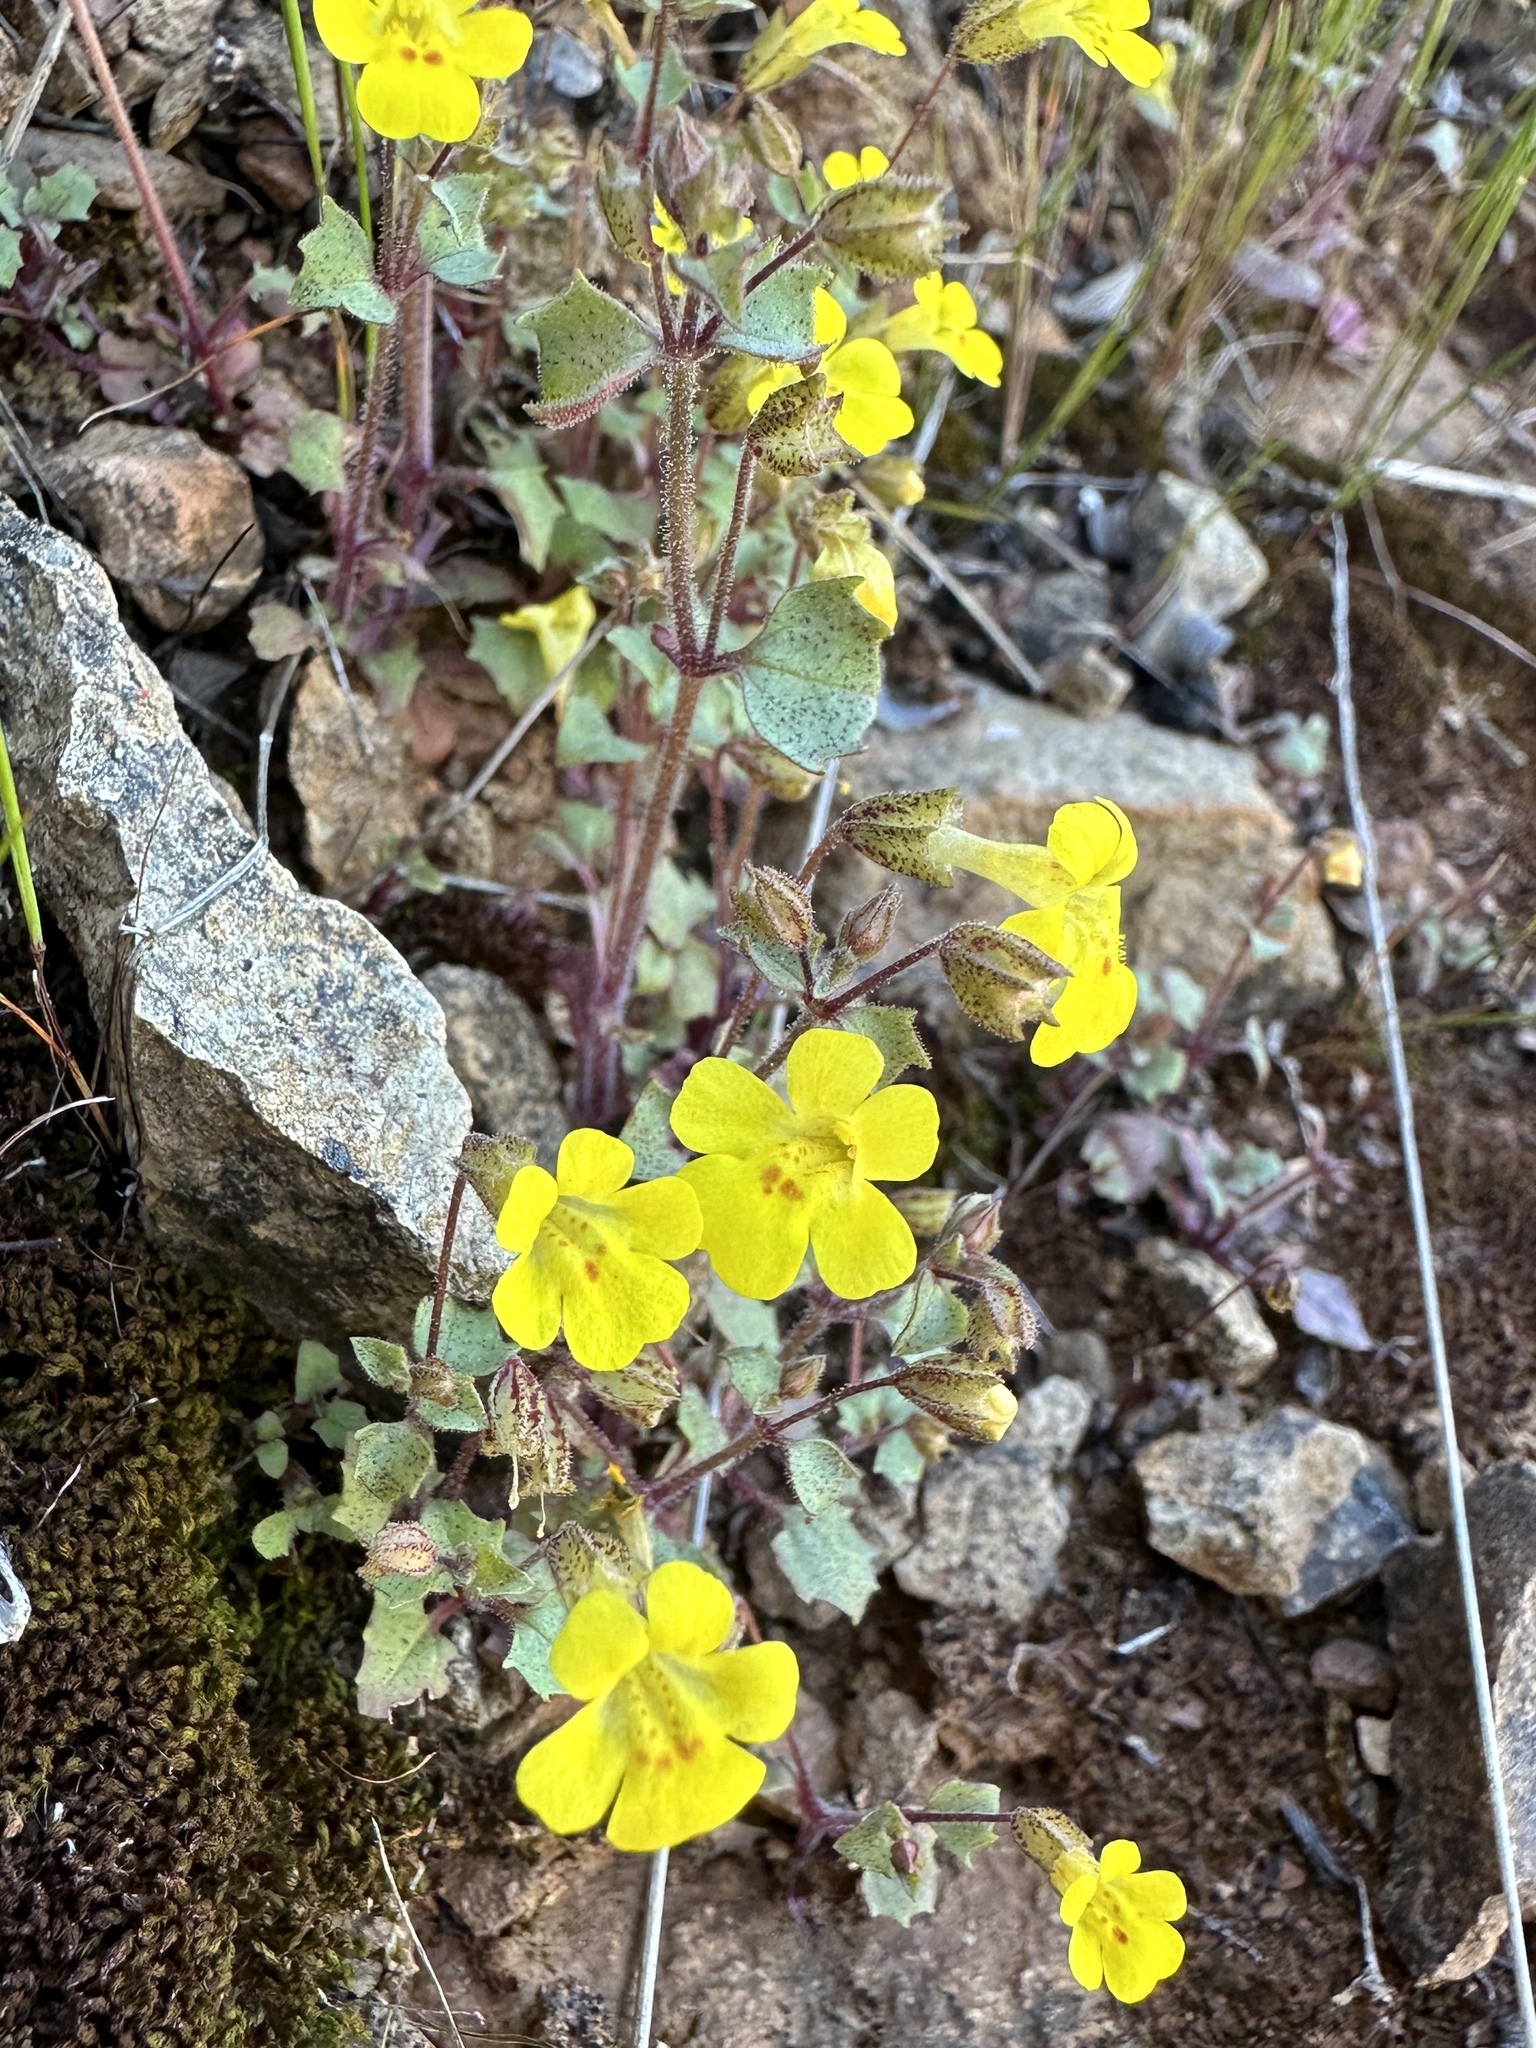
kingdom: Plantae
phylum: Tracheophyta
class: Magnoliopsida
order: Lamiales
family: Phrymaceae
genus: Erythranthe
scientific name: Erythranthe pardalis
